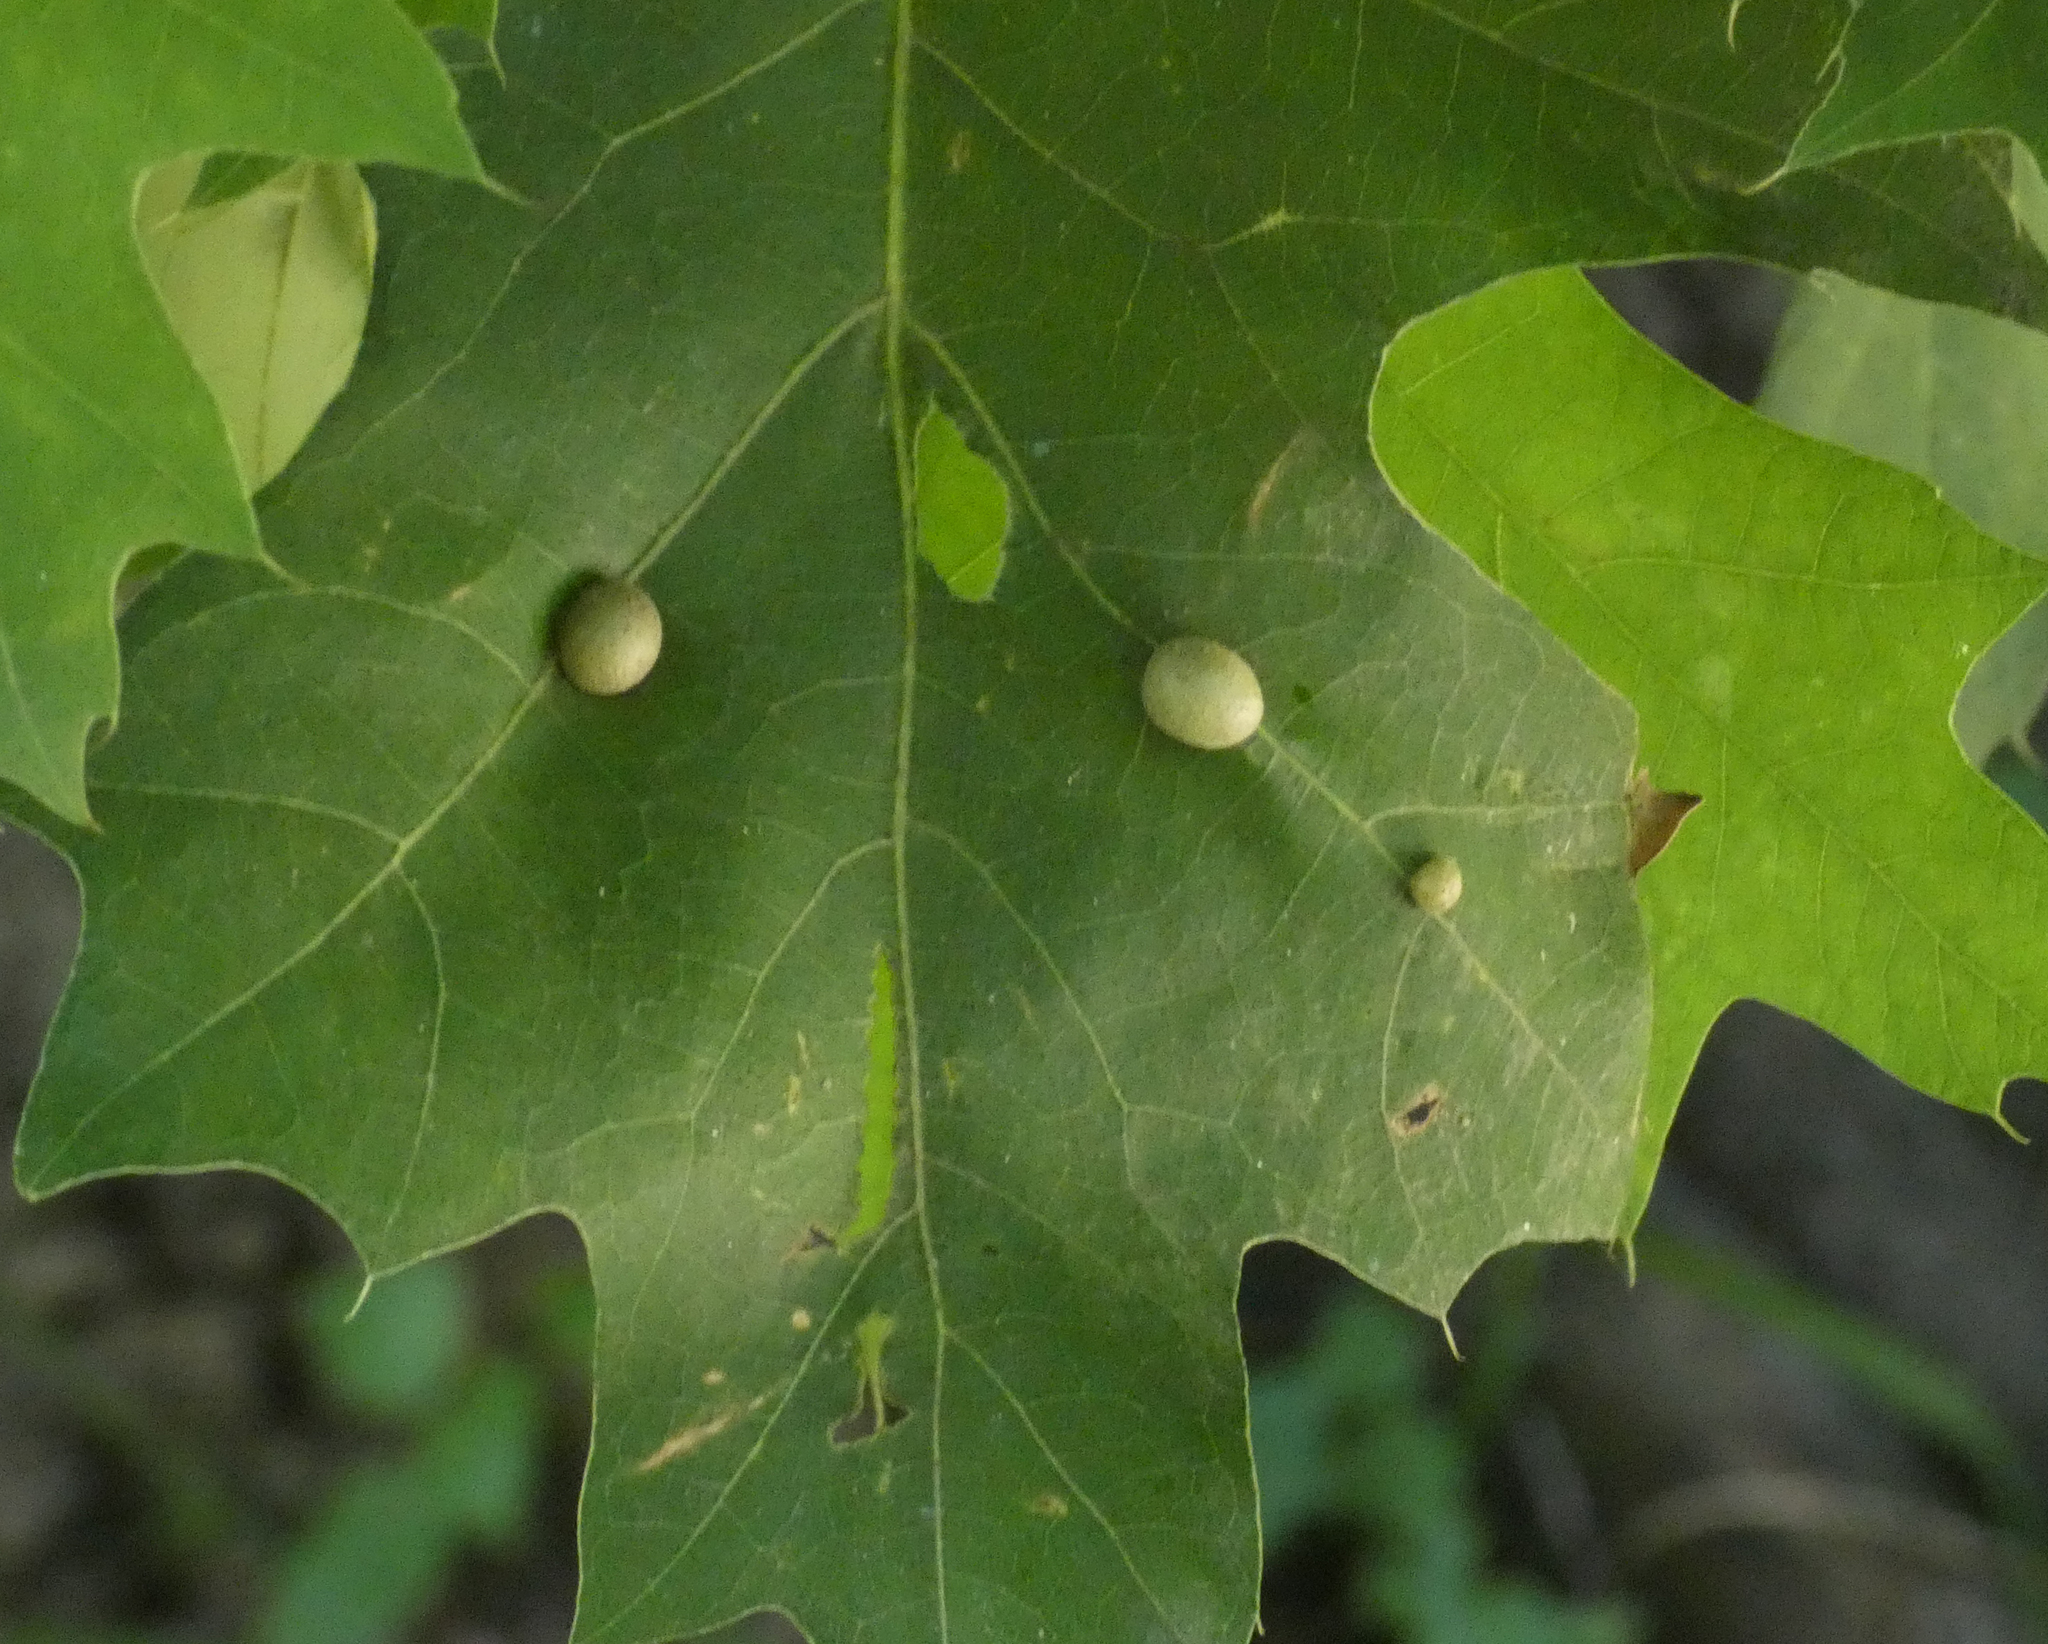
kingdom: Animalia
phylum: Arthropoda
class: Insecta
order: Diptera
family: Cecidomyiidae
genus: Polystepha
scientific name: Polystepha pilulae
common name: Oak leaf gall midge
